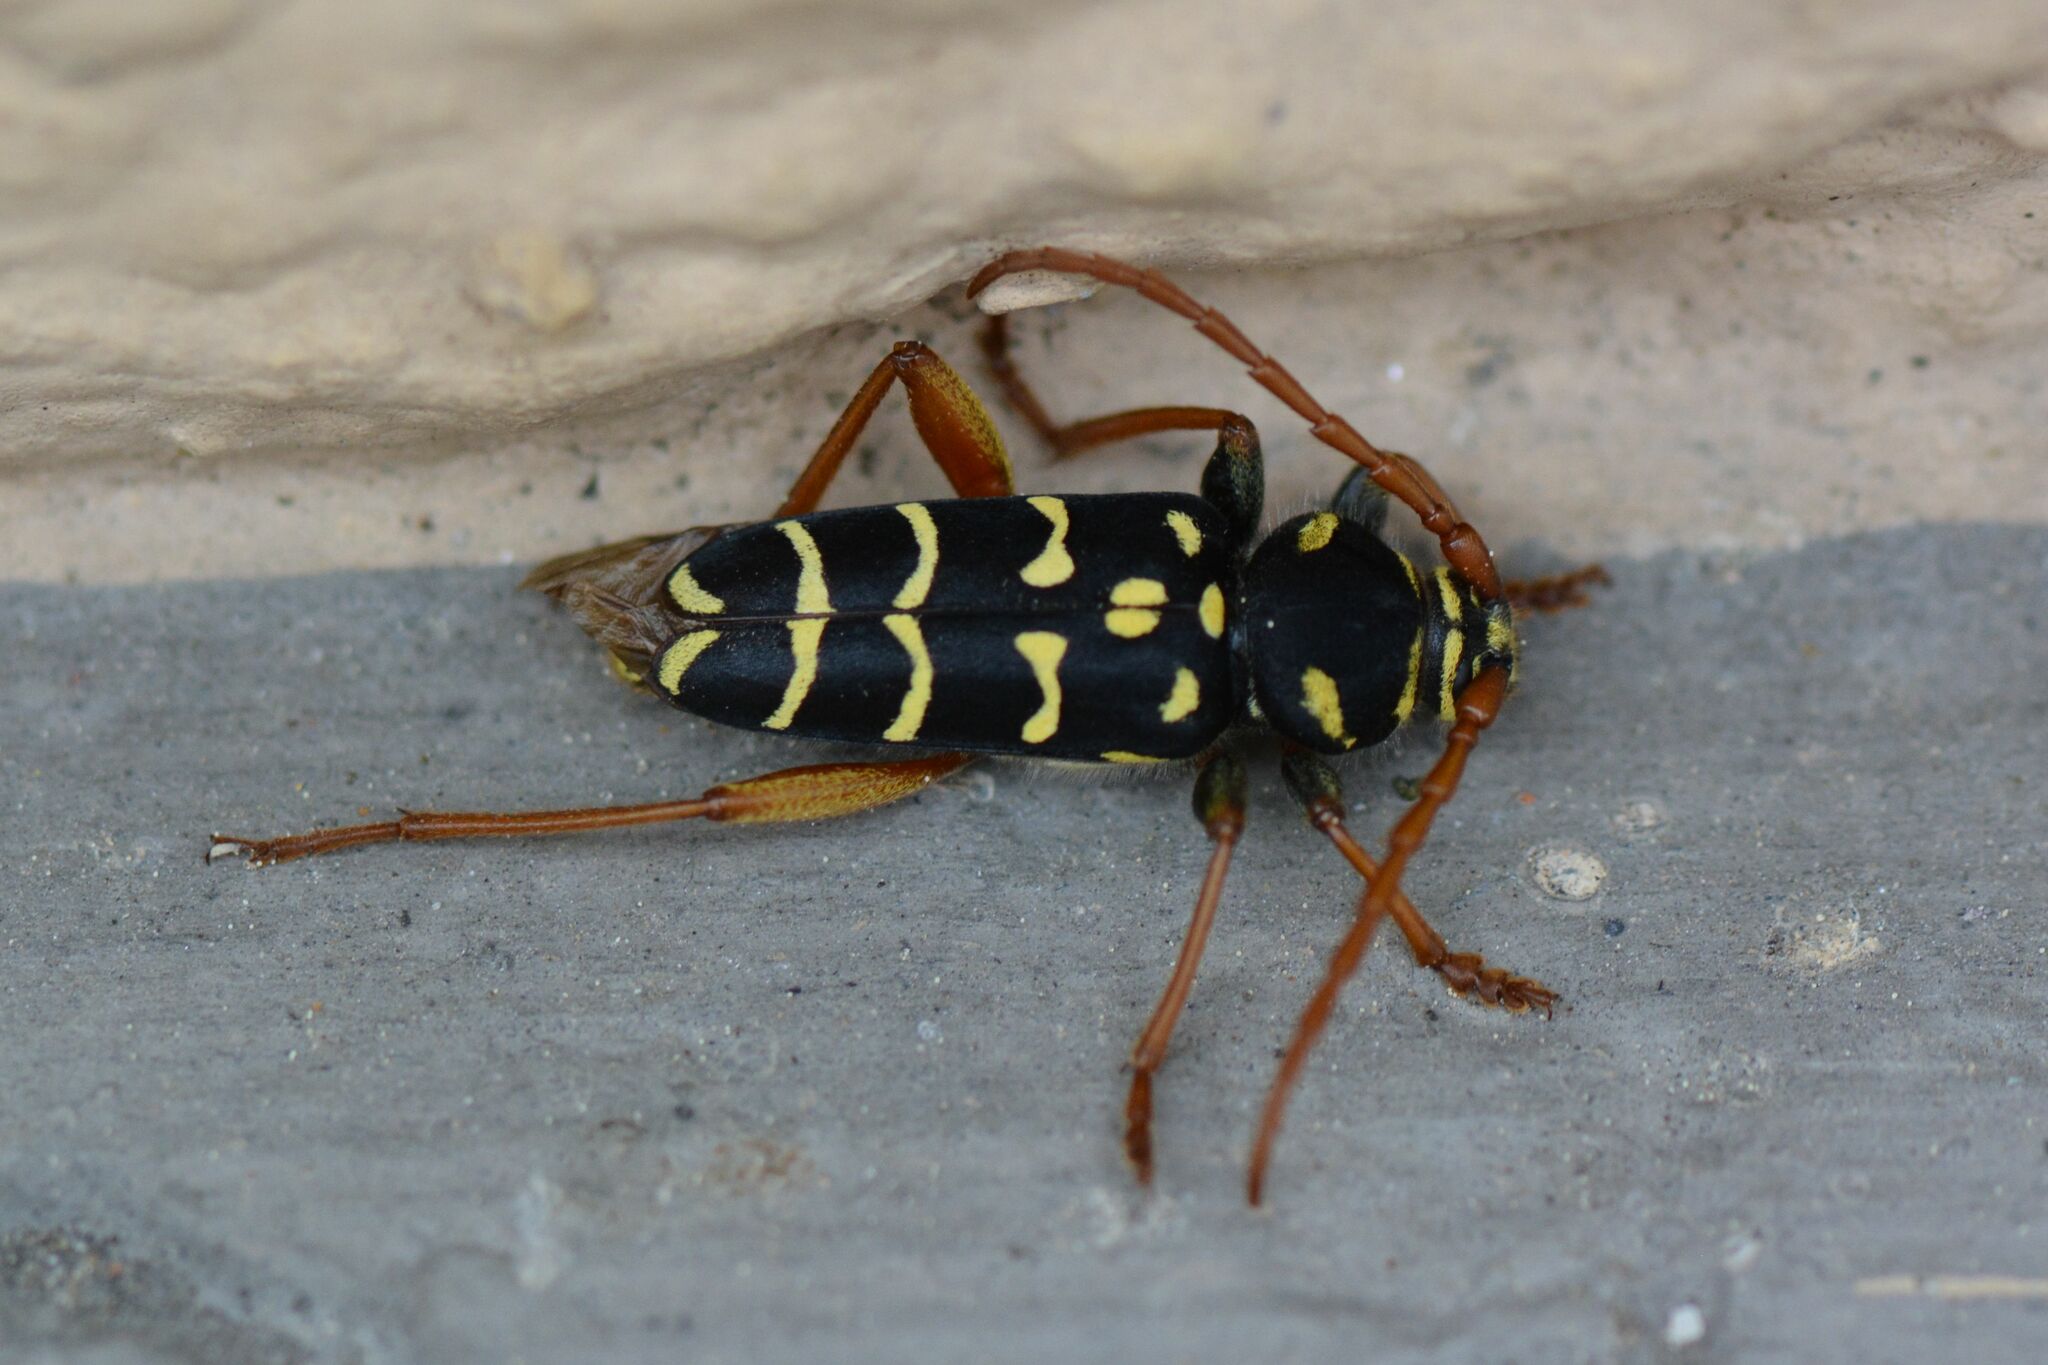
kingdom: Animalia
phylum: Arthropoda
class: Insecta
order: Coleoptera
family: Cerambycidae
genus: Plagionotus
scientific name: Plagionotus arcuatus
